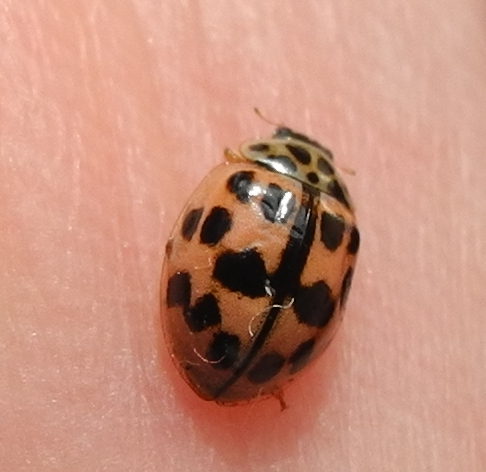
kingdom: Animalia
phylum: Arthropoda
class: Insecta
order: Coleoptera
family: Coccinellidae
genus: Oenopia
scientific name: Oenopia conglobata
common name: Ladybird beetle
